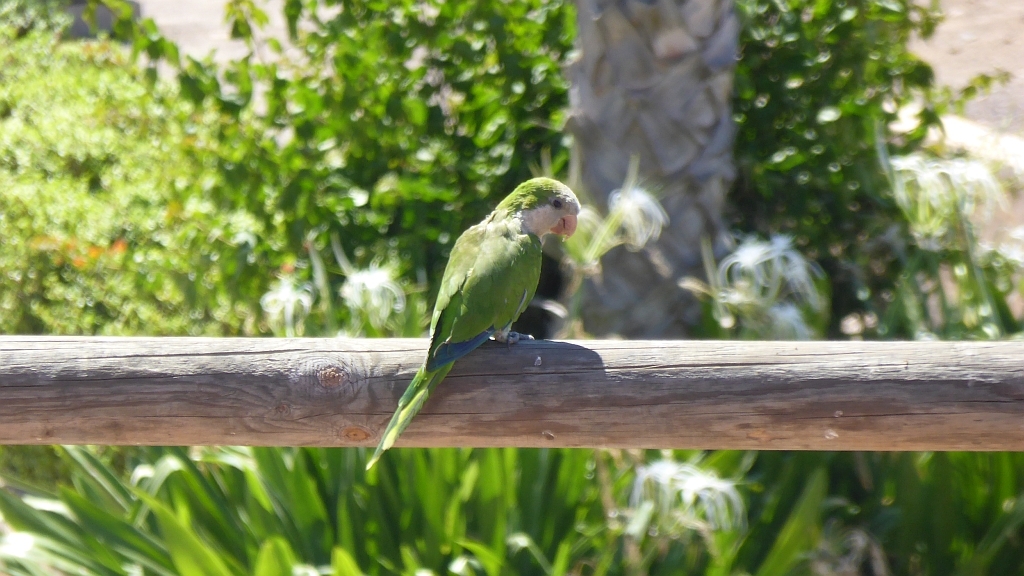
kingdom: Animalia
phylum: Chordata
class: Aves
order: Psittaciformes
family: Psittacidae
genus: Myiopsitta
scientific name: Myiopsitta monachus
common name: Monk parakeet
